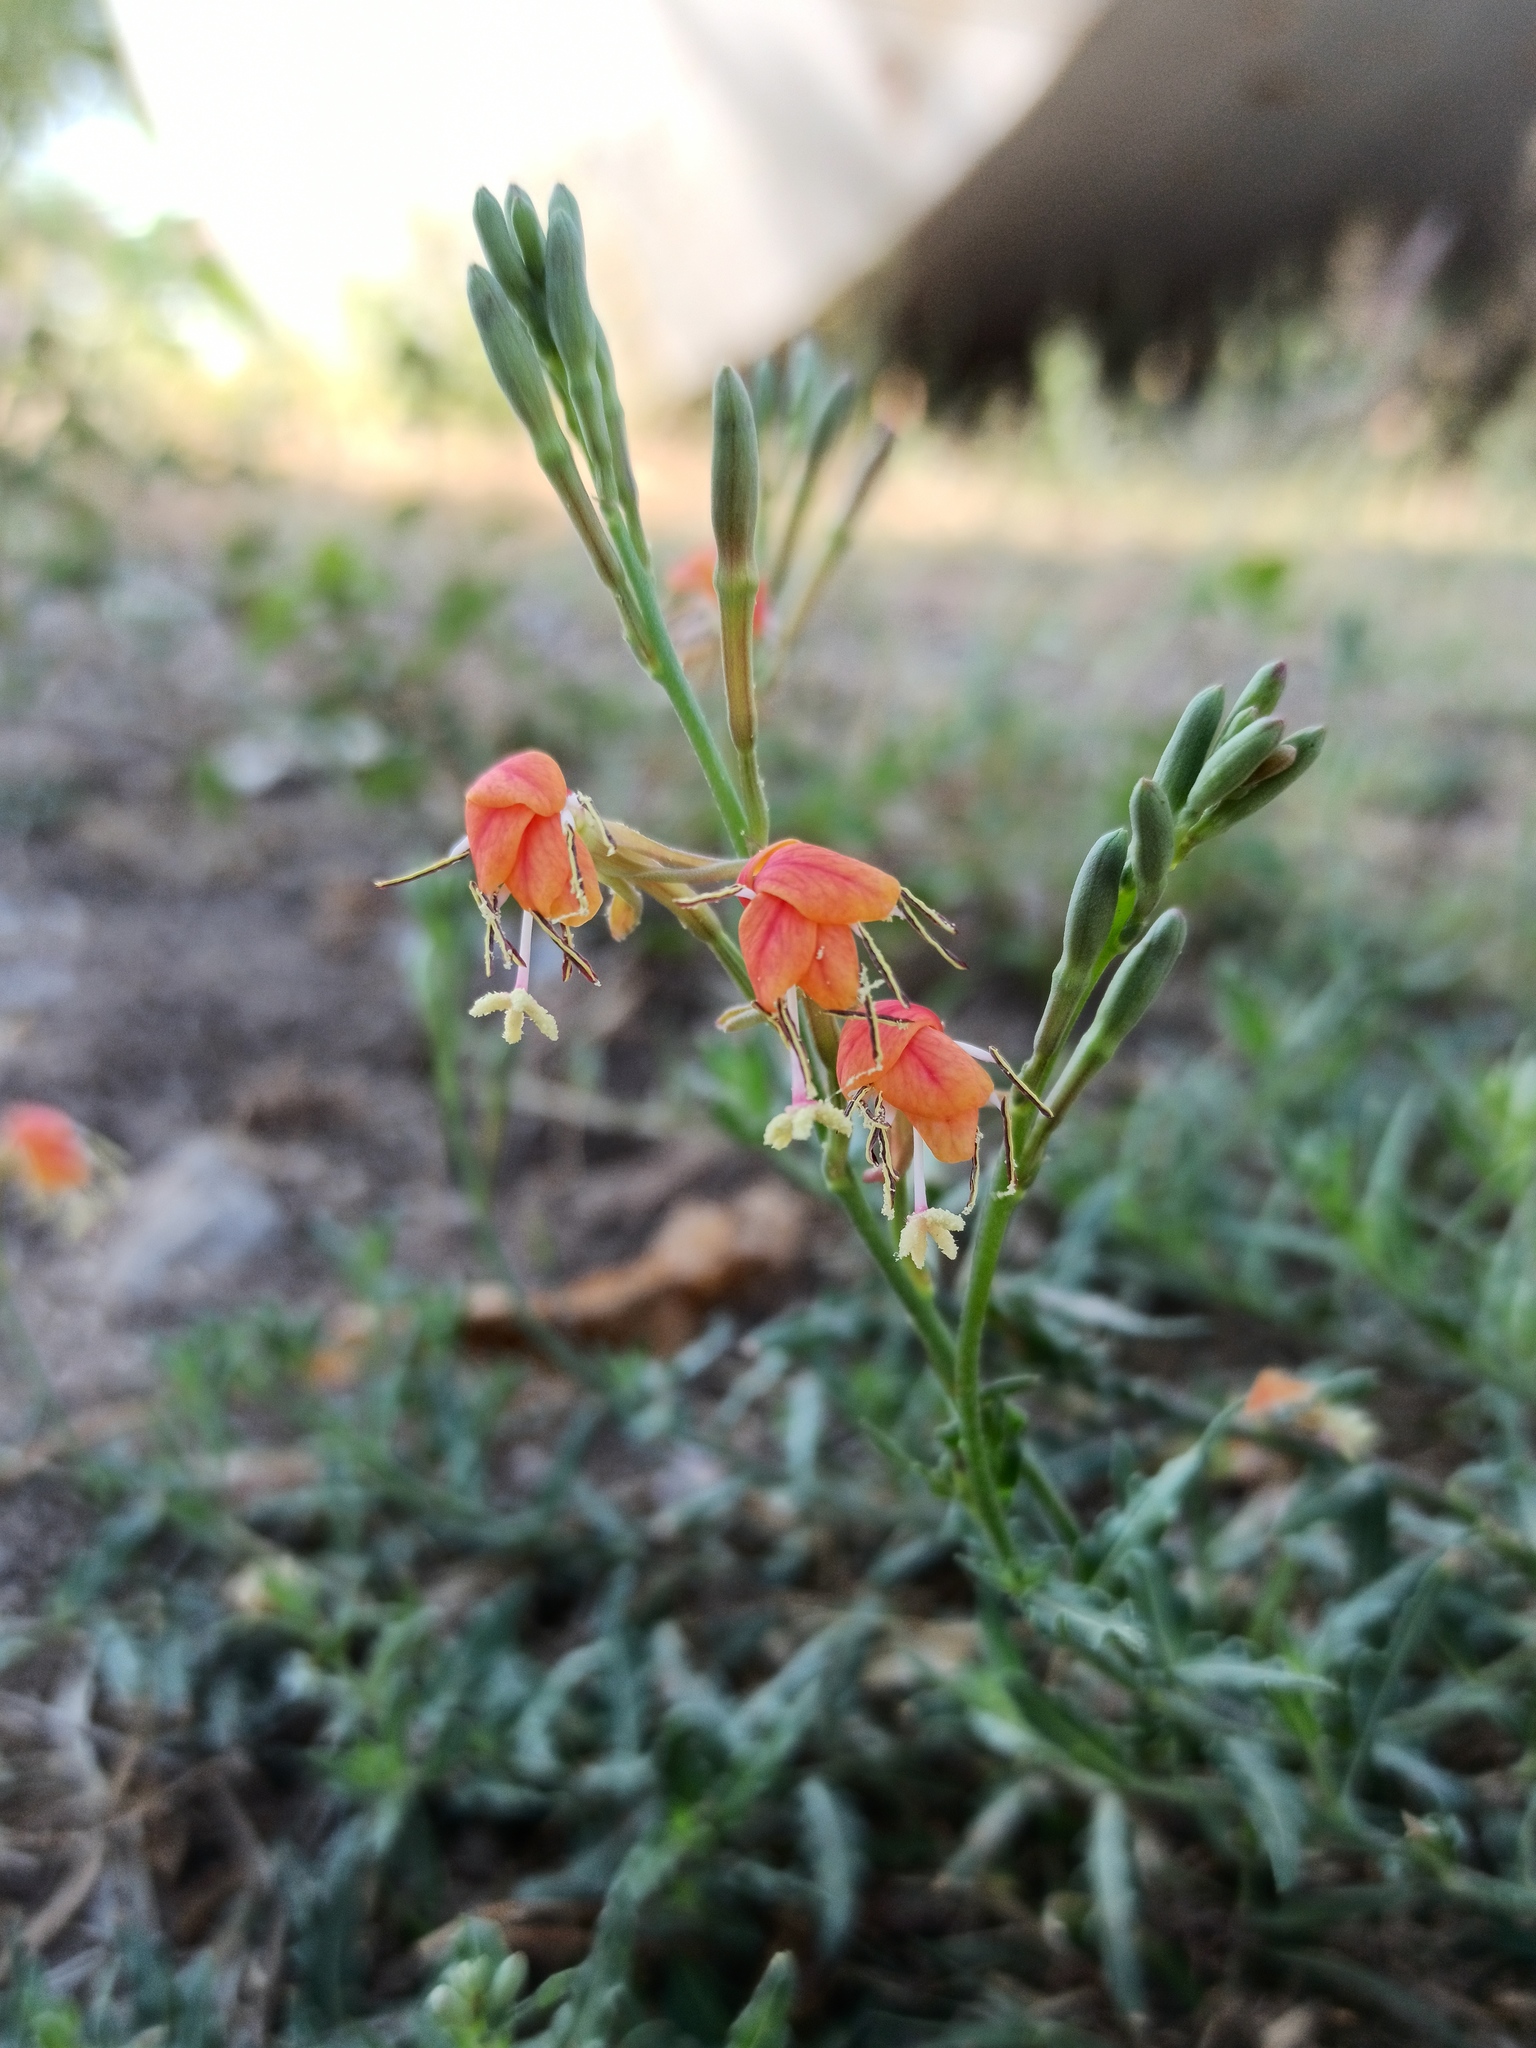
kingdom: Plantae
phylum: Tracheophyta
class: Magnoliopsida
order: Myrtales
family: Onagraceae
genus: Oenothera
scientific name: Oenothera suffrutescens
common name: Scarlet beeblossom
